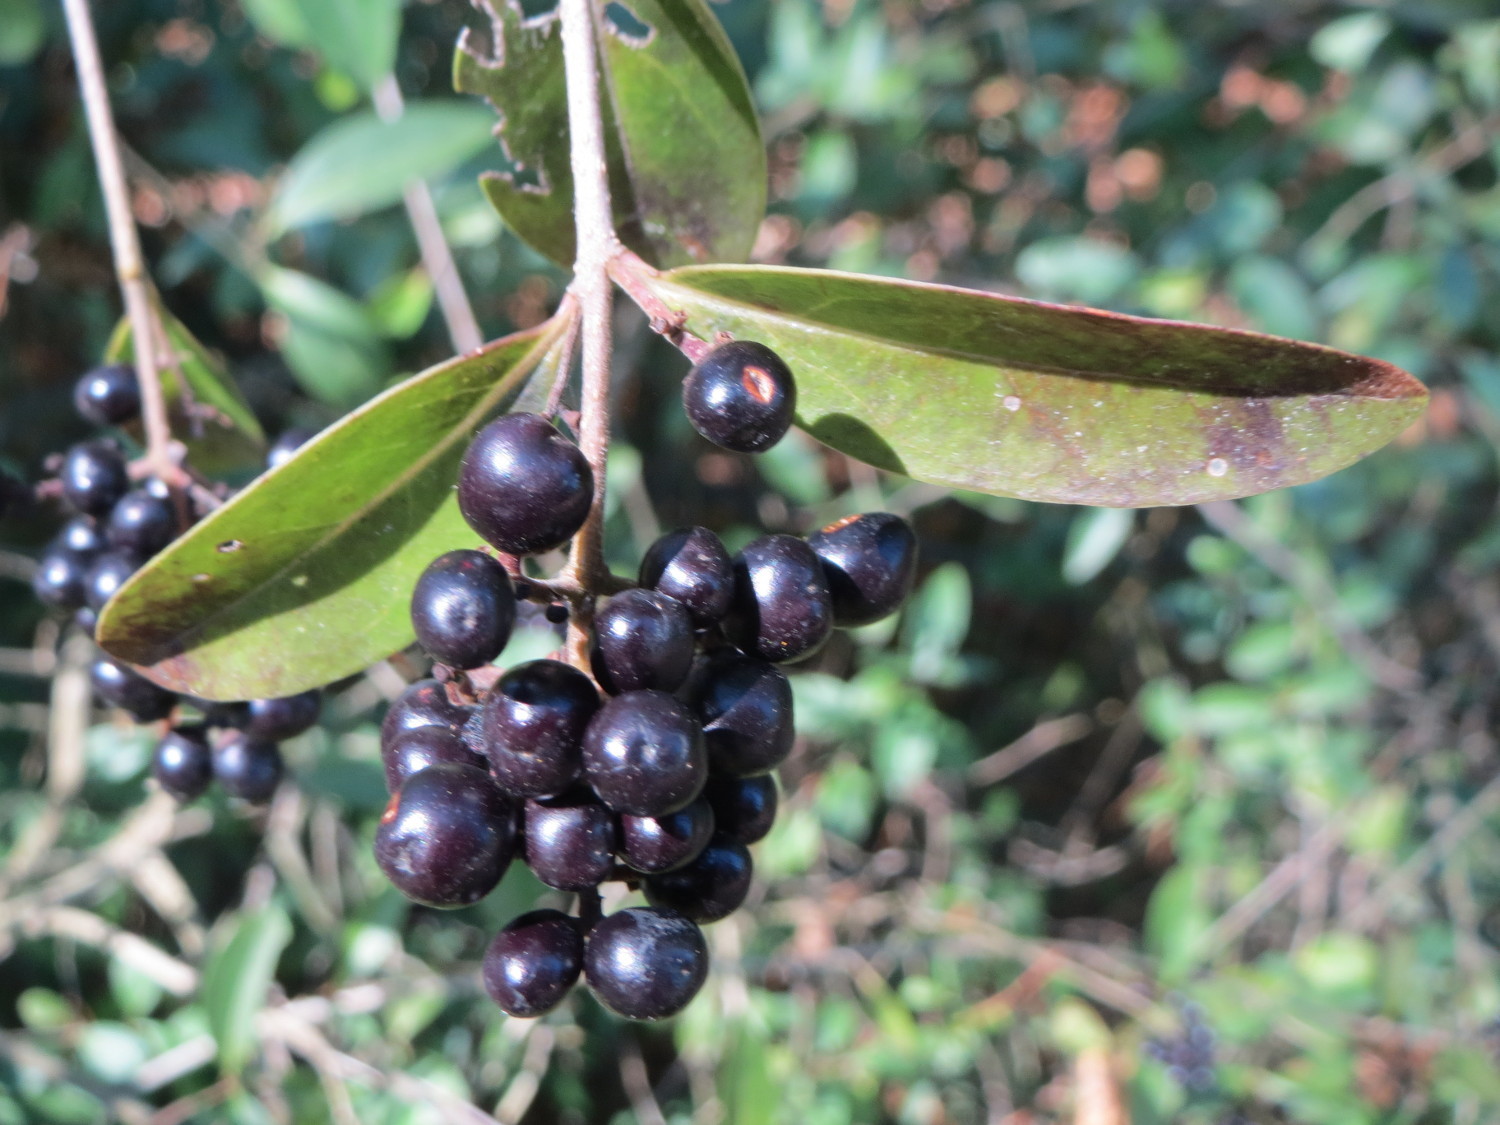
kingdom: Plantae
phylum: Tracheophyta
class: Magnoliopsida
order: Lamiales
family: Oleaceae
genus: Ligustrum
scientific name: Ligustrum vulgare
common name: Wild privet
